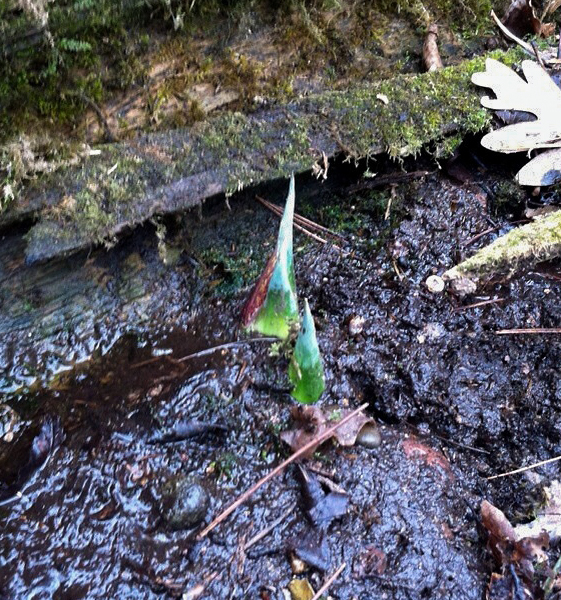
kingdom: Plantae
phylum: Tracheophyta
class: Liliopsida
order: Alismatales
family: Araceae
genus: Symplocarpus
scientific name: Symplocarpus foetidus
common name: Eastern skunk cabbage
